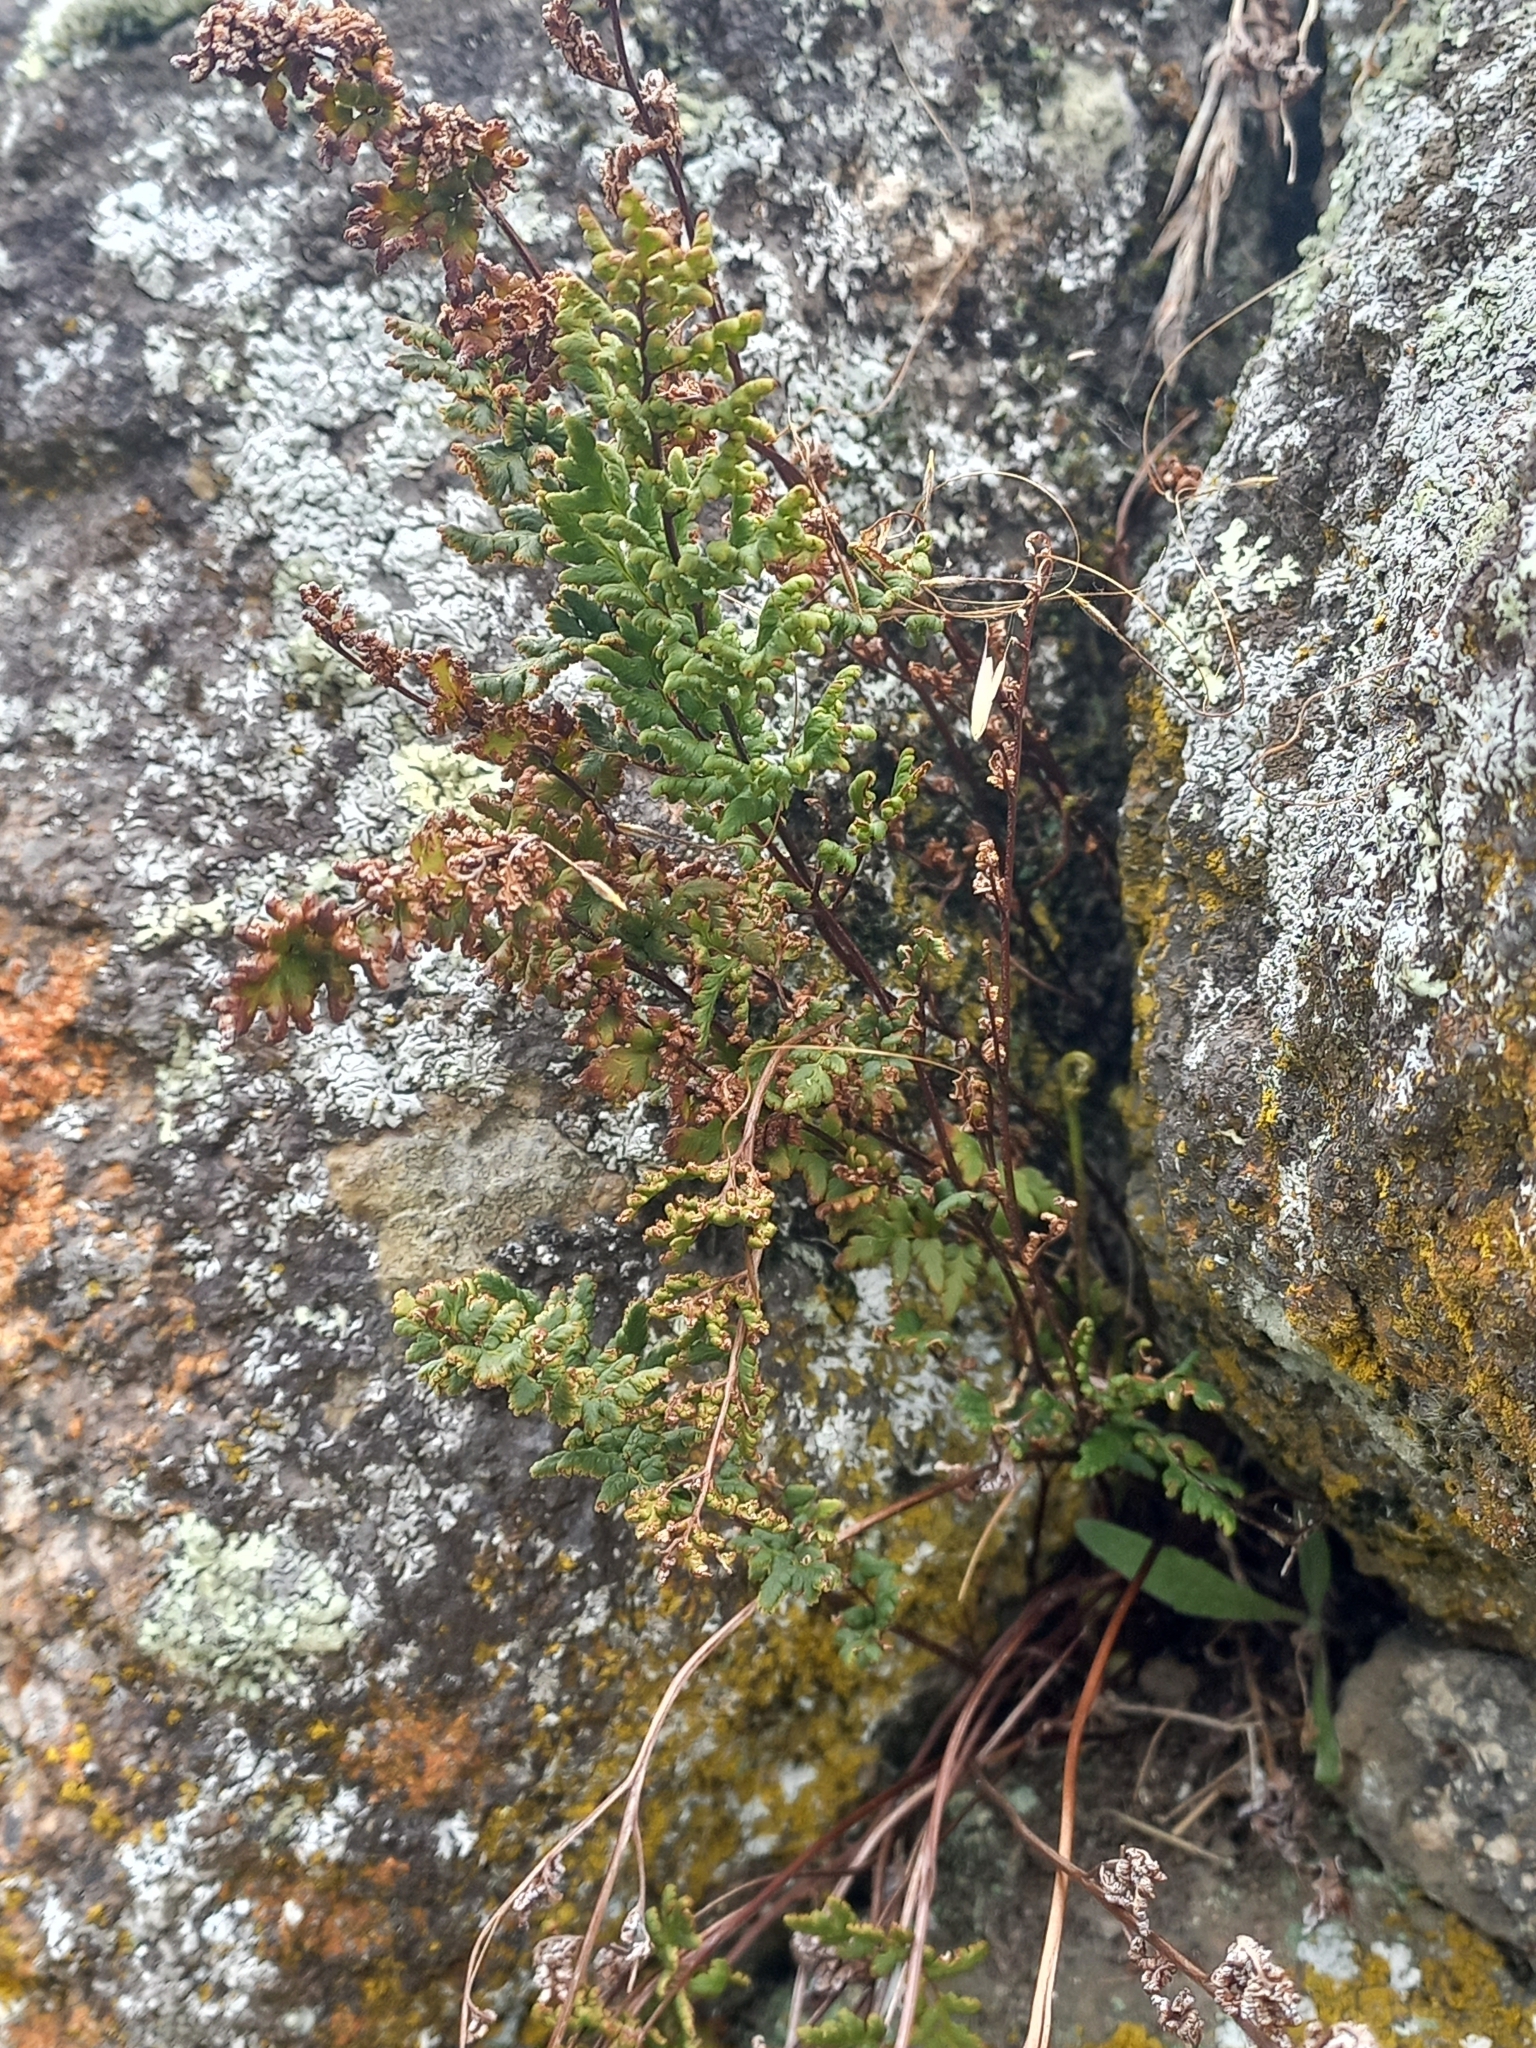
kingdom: Plantae
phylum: Tracheophyta
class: Polypodiopsida
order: Polypodiales
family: Pteridaceae
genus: Cheilanthes
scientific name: Cheilanthes sieberi
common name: Mulga fern
